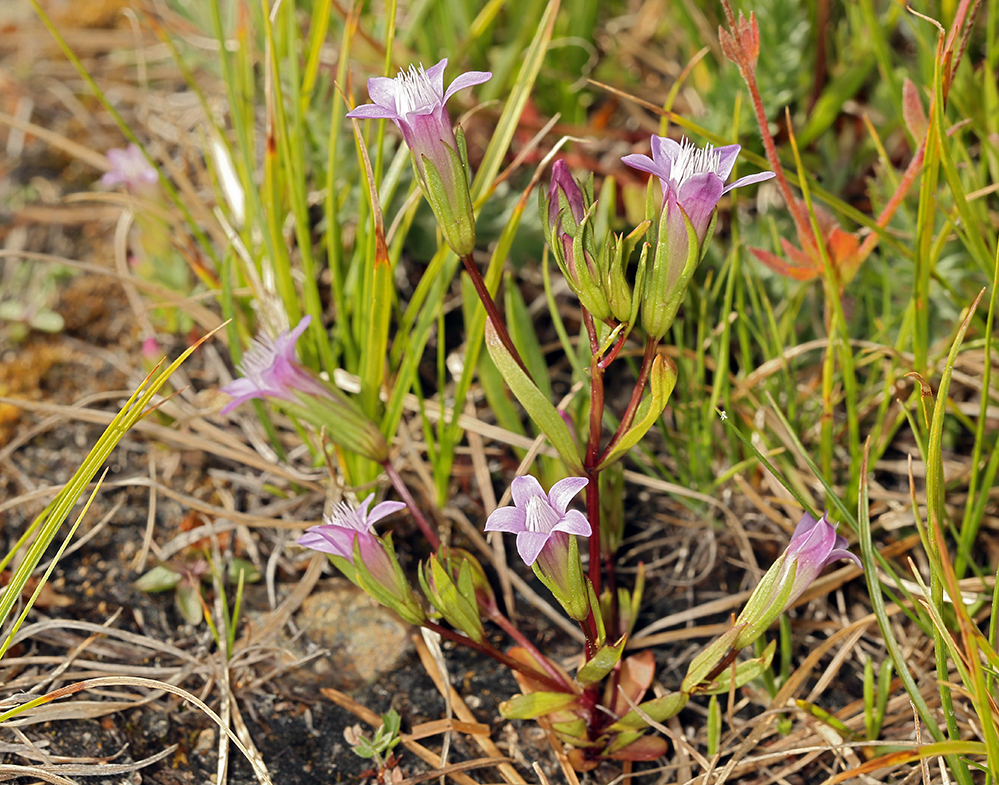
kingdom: Plantae
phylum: Tracheophyta
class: Magnoliopsida
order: Gentianales
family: Gentianaceae
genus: Gentianella
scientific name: Gentianella amarella
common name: Autumn gentian
